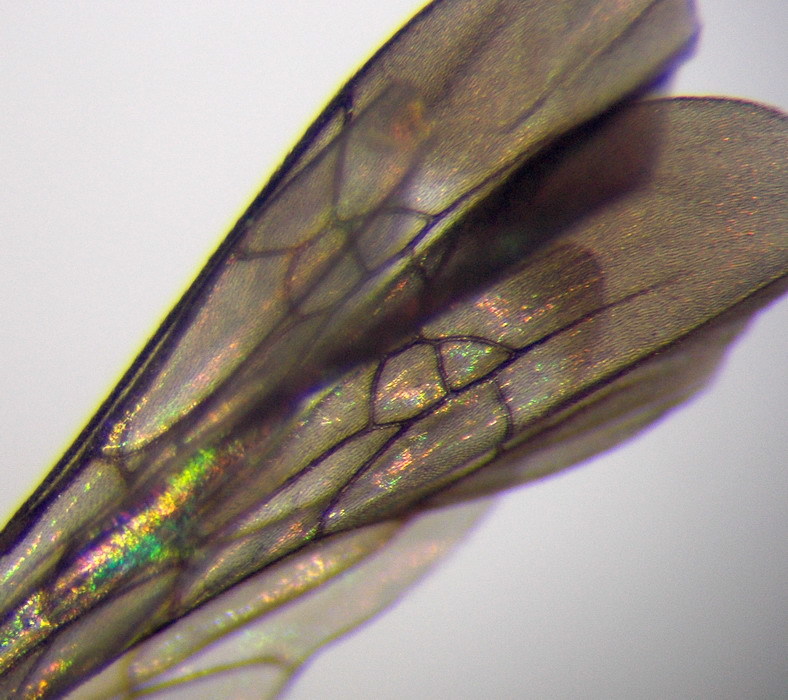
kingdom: Animalia
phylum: Arthropoda
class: Insecta
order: Hymenoptera
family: Pompilidae
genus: Aporinellus
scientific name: Aporinellus sexmaculatus
